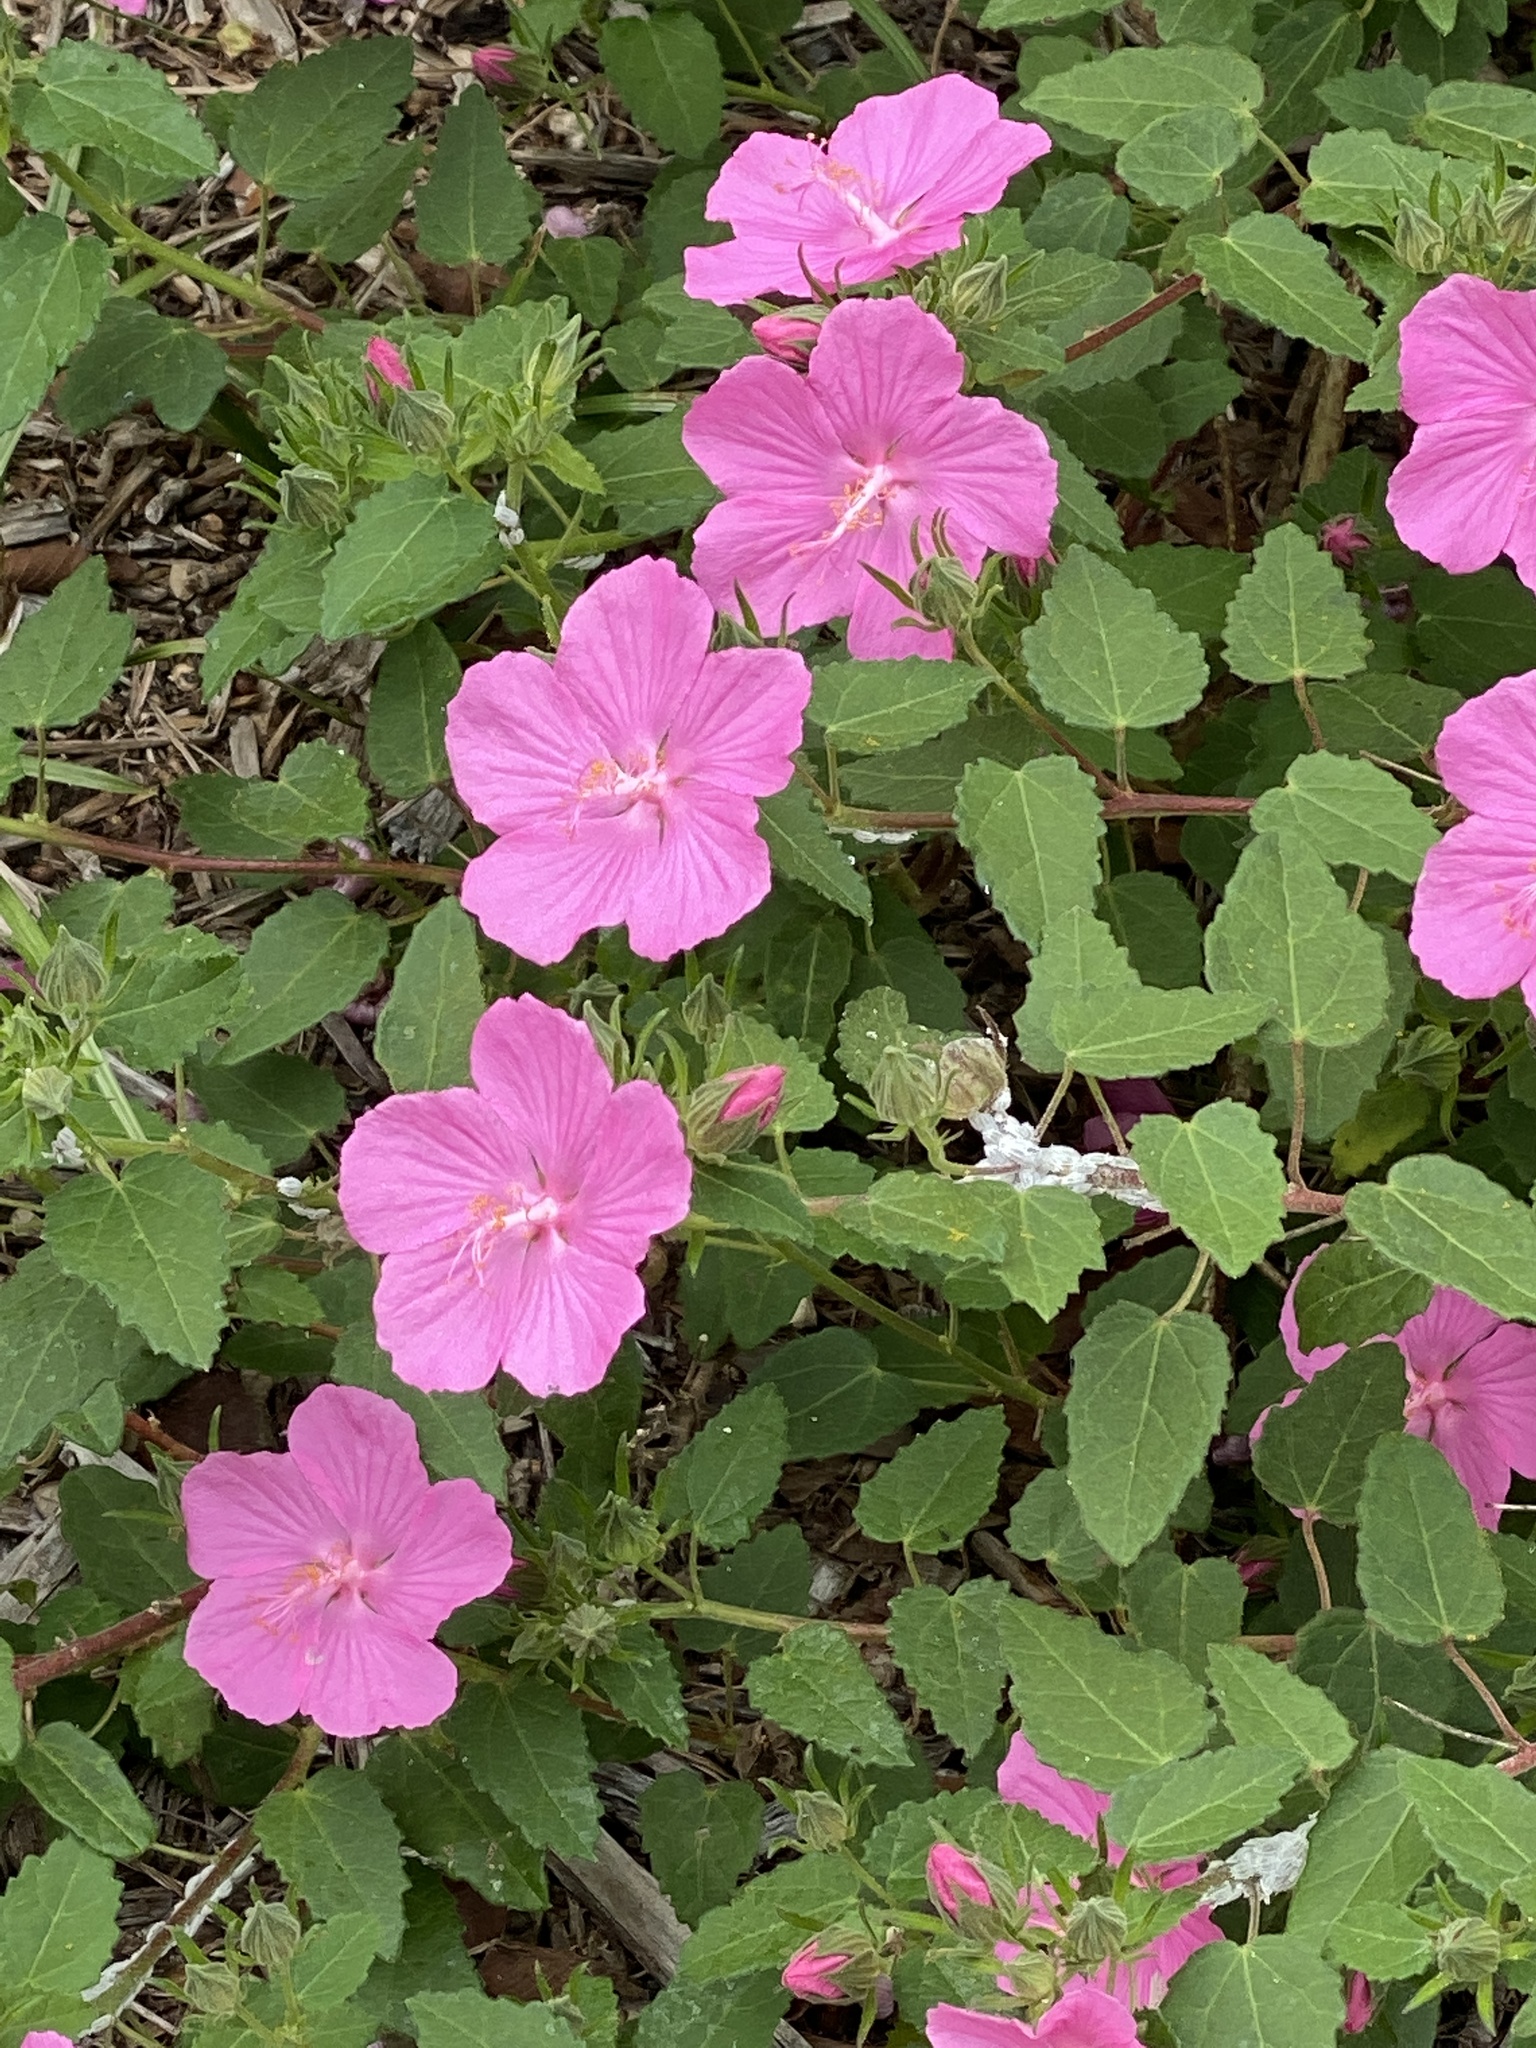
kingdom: Plantae
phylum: Tracheophyta
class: Magnoliopsida
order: Malvales
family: Malvaceae
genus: Pavonia
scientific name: Pavonia lasiopetala
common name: Texas swamp-mallow
